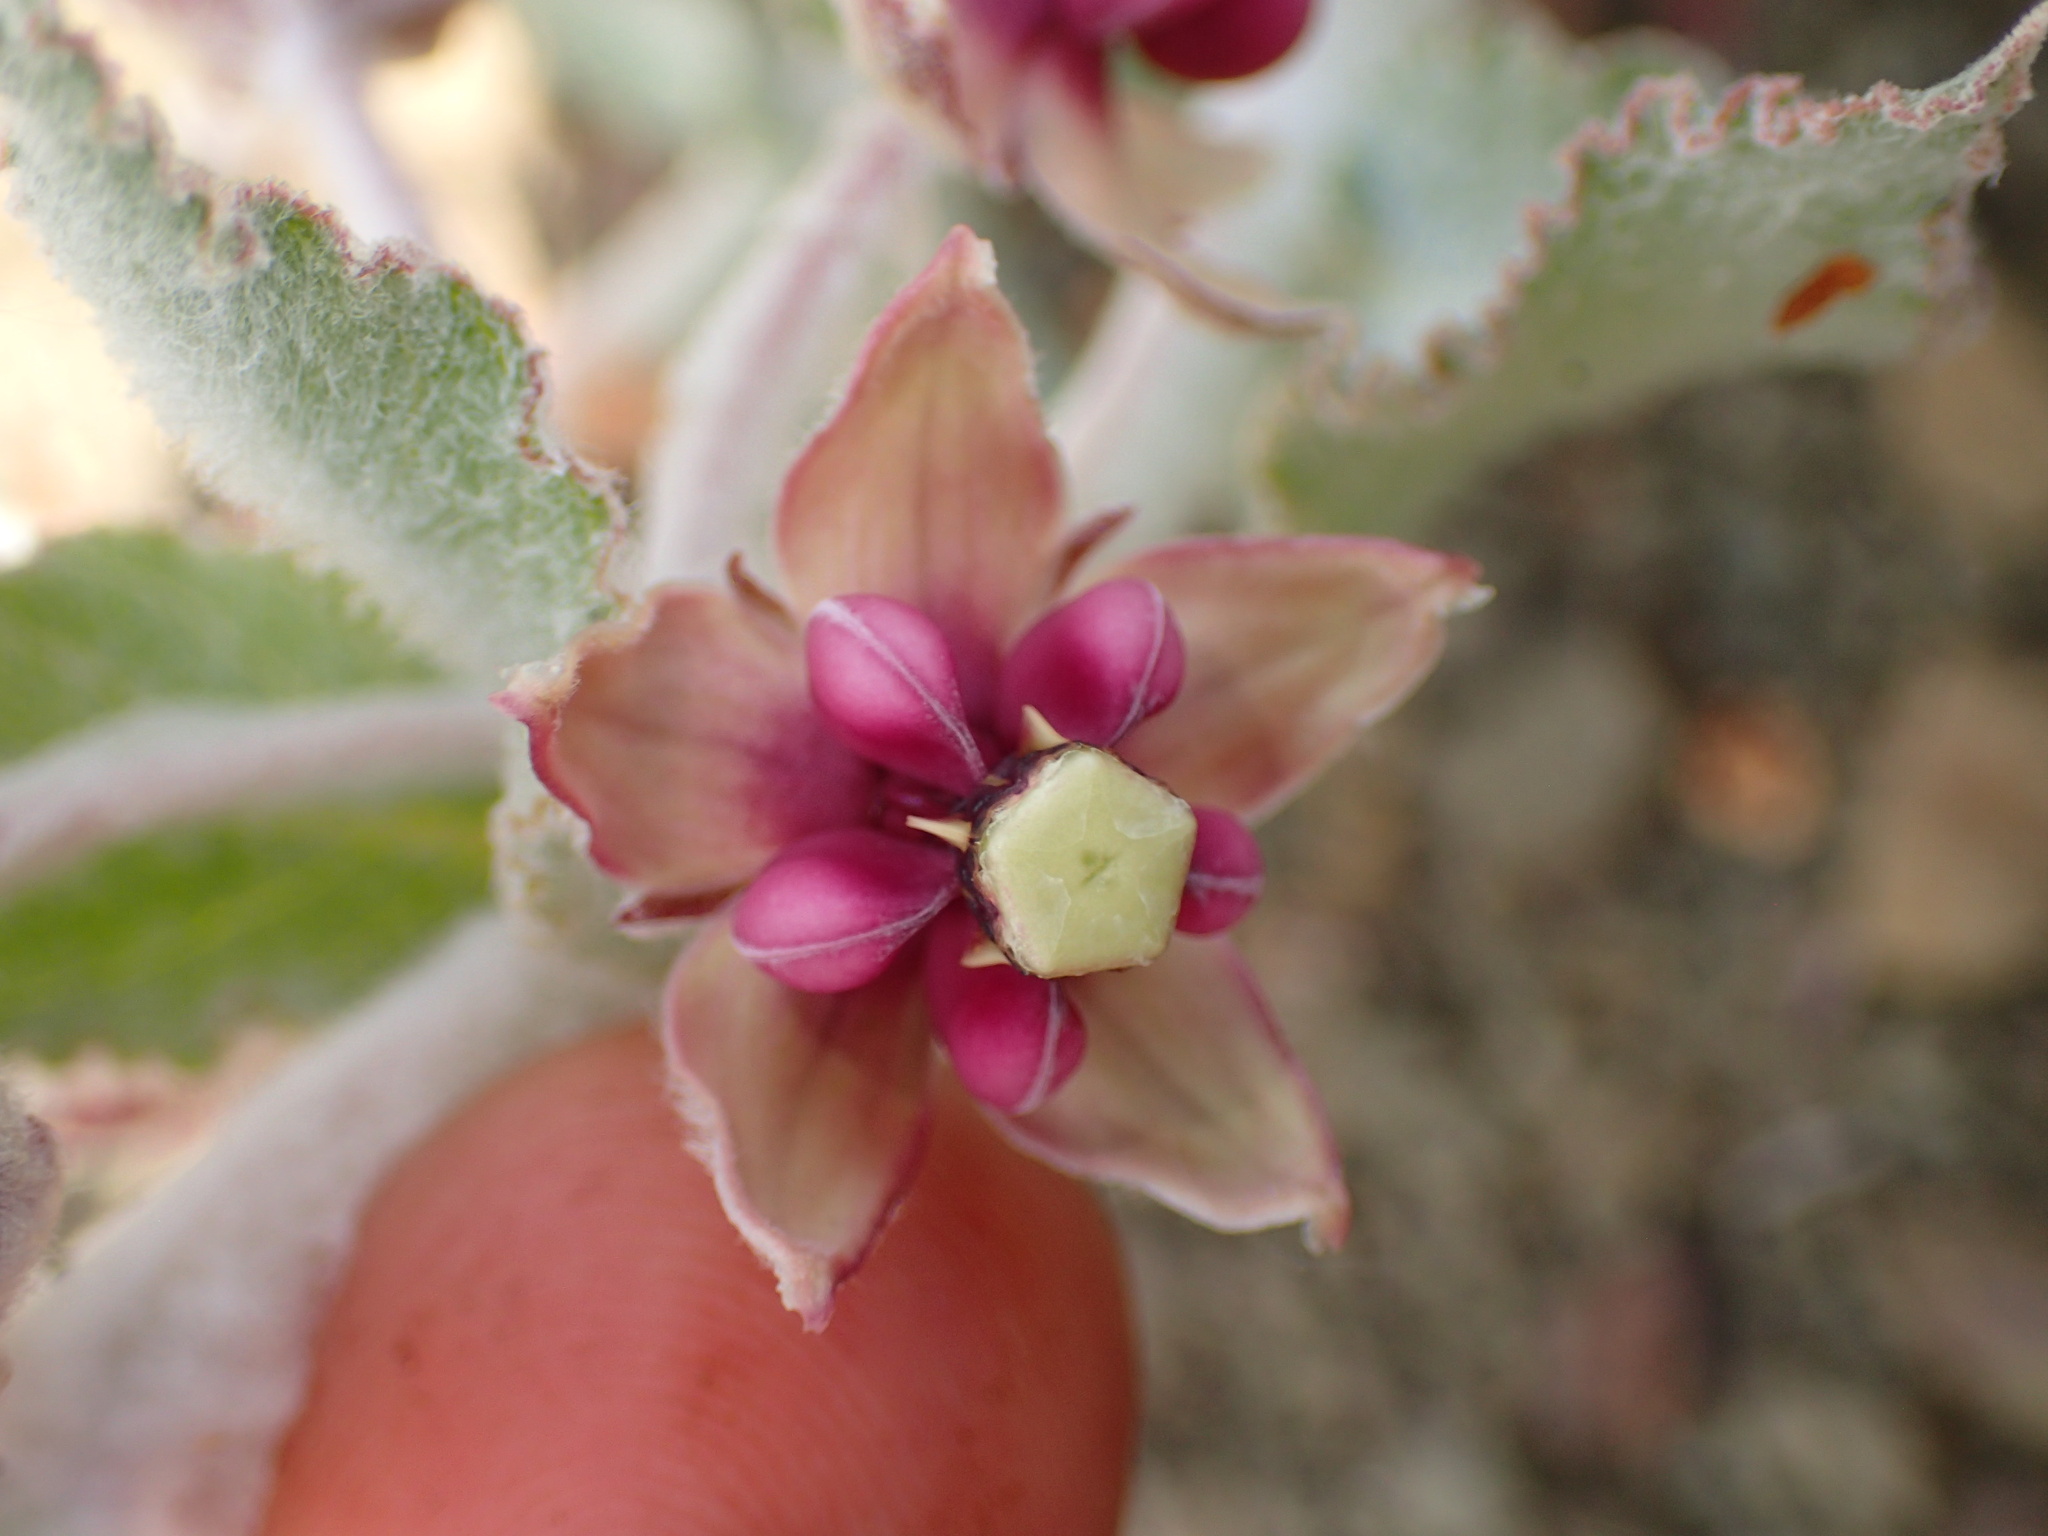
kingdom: Plantae
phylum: Tracheophyta
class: Magnoliopsida
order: Gentianales
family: Apocynaceae
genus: Asclepias
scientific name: Asclepias californica
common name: California milkweed
